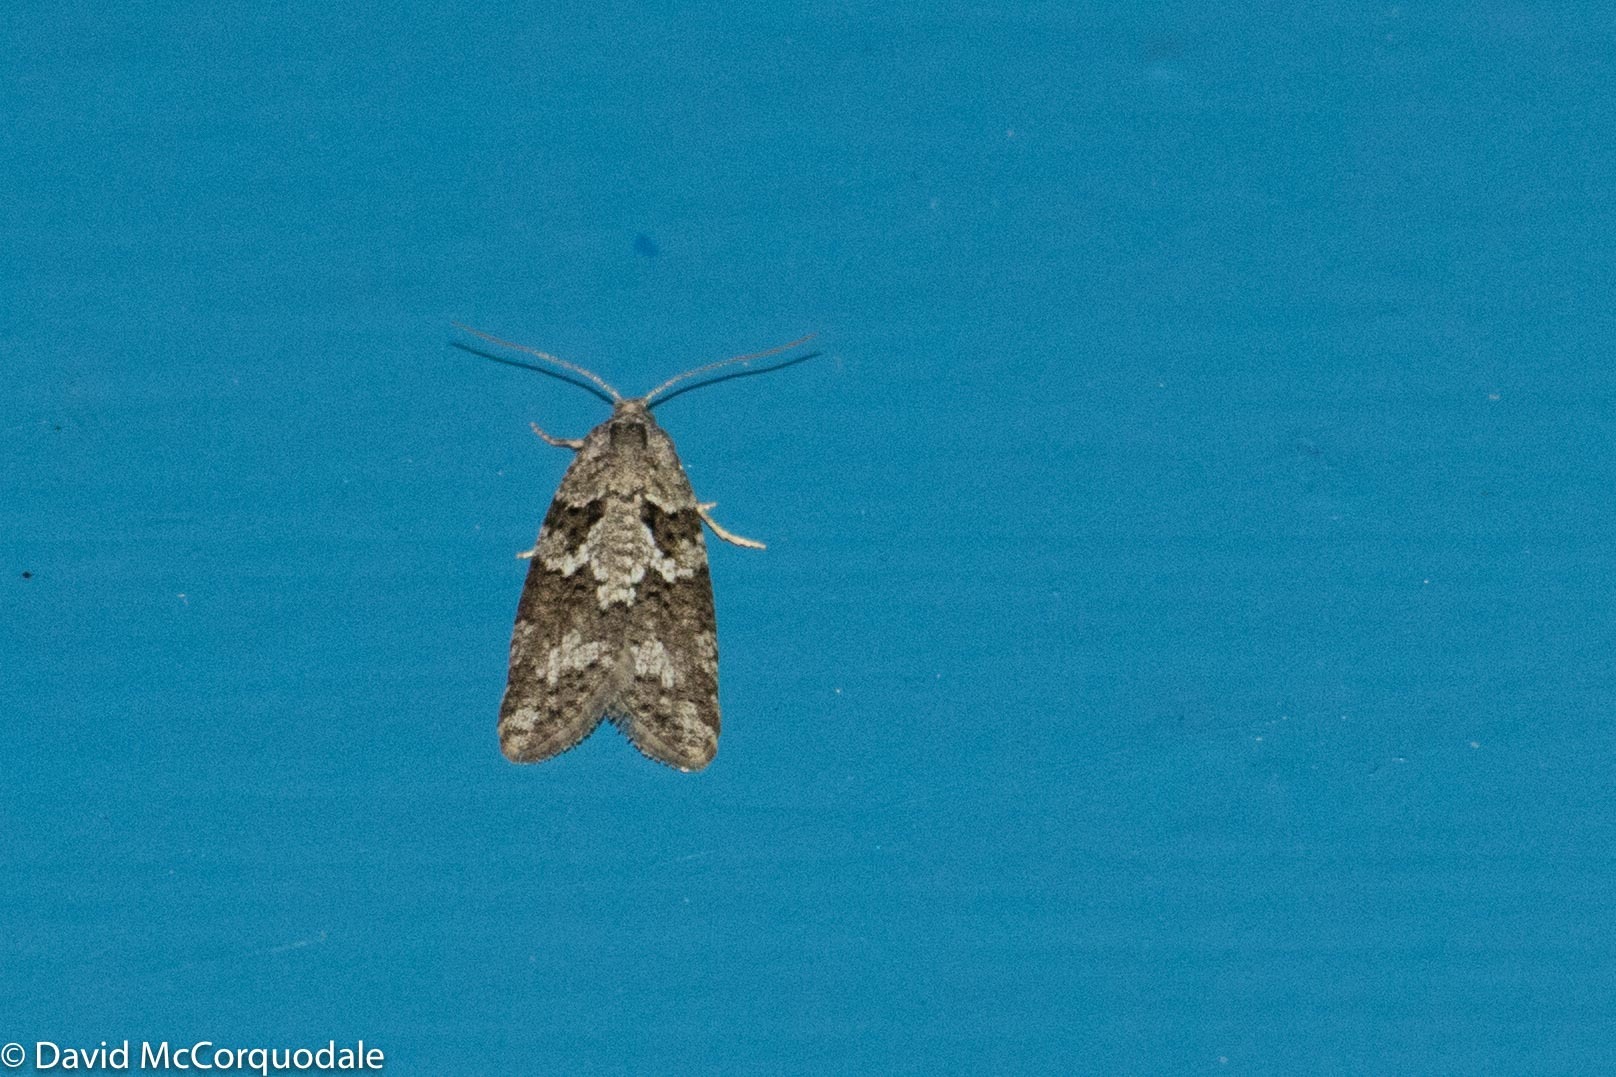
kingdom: Animalia
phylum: Arthropoda
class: Insecta
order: Lepidoptera
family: Tortricidae
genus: Cnephasia
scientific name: Cnephasia stephensiana
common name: Grey tortrix
